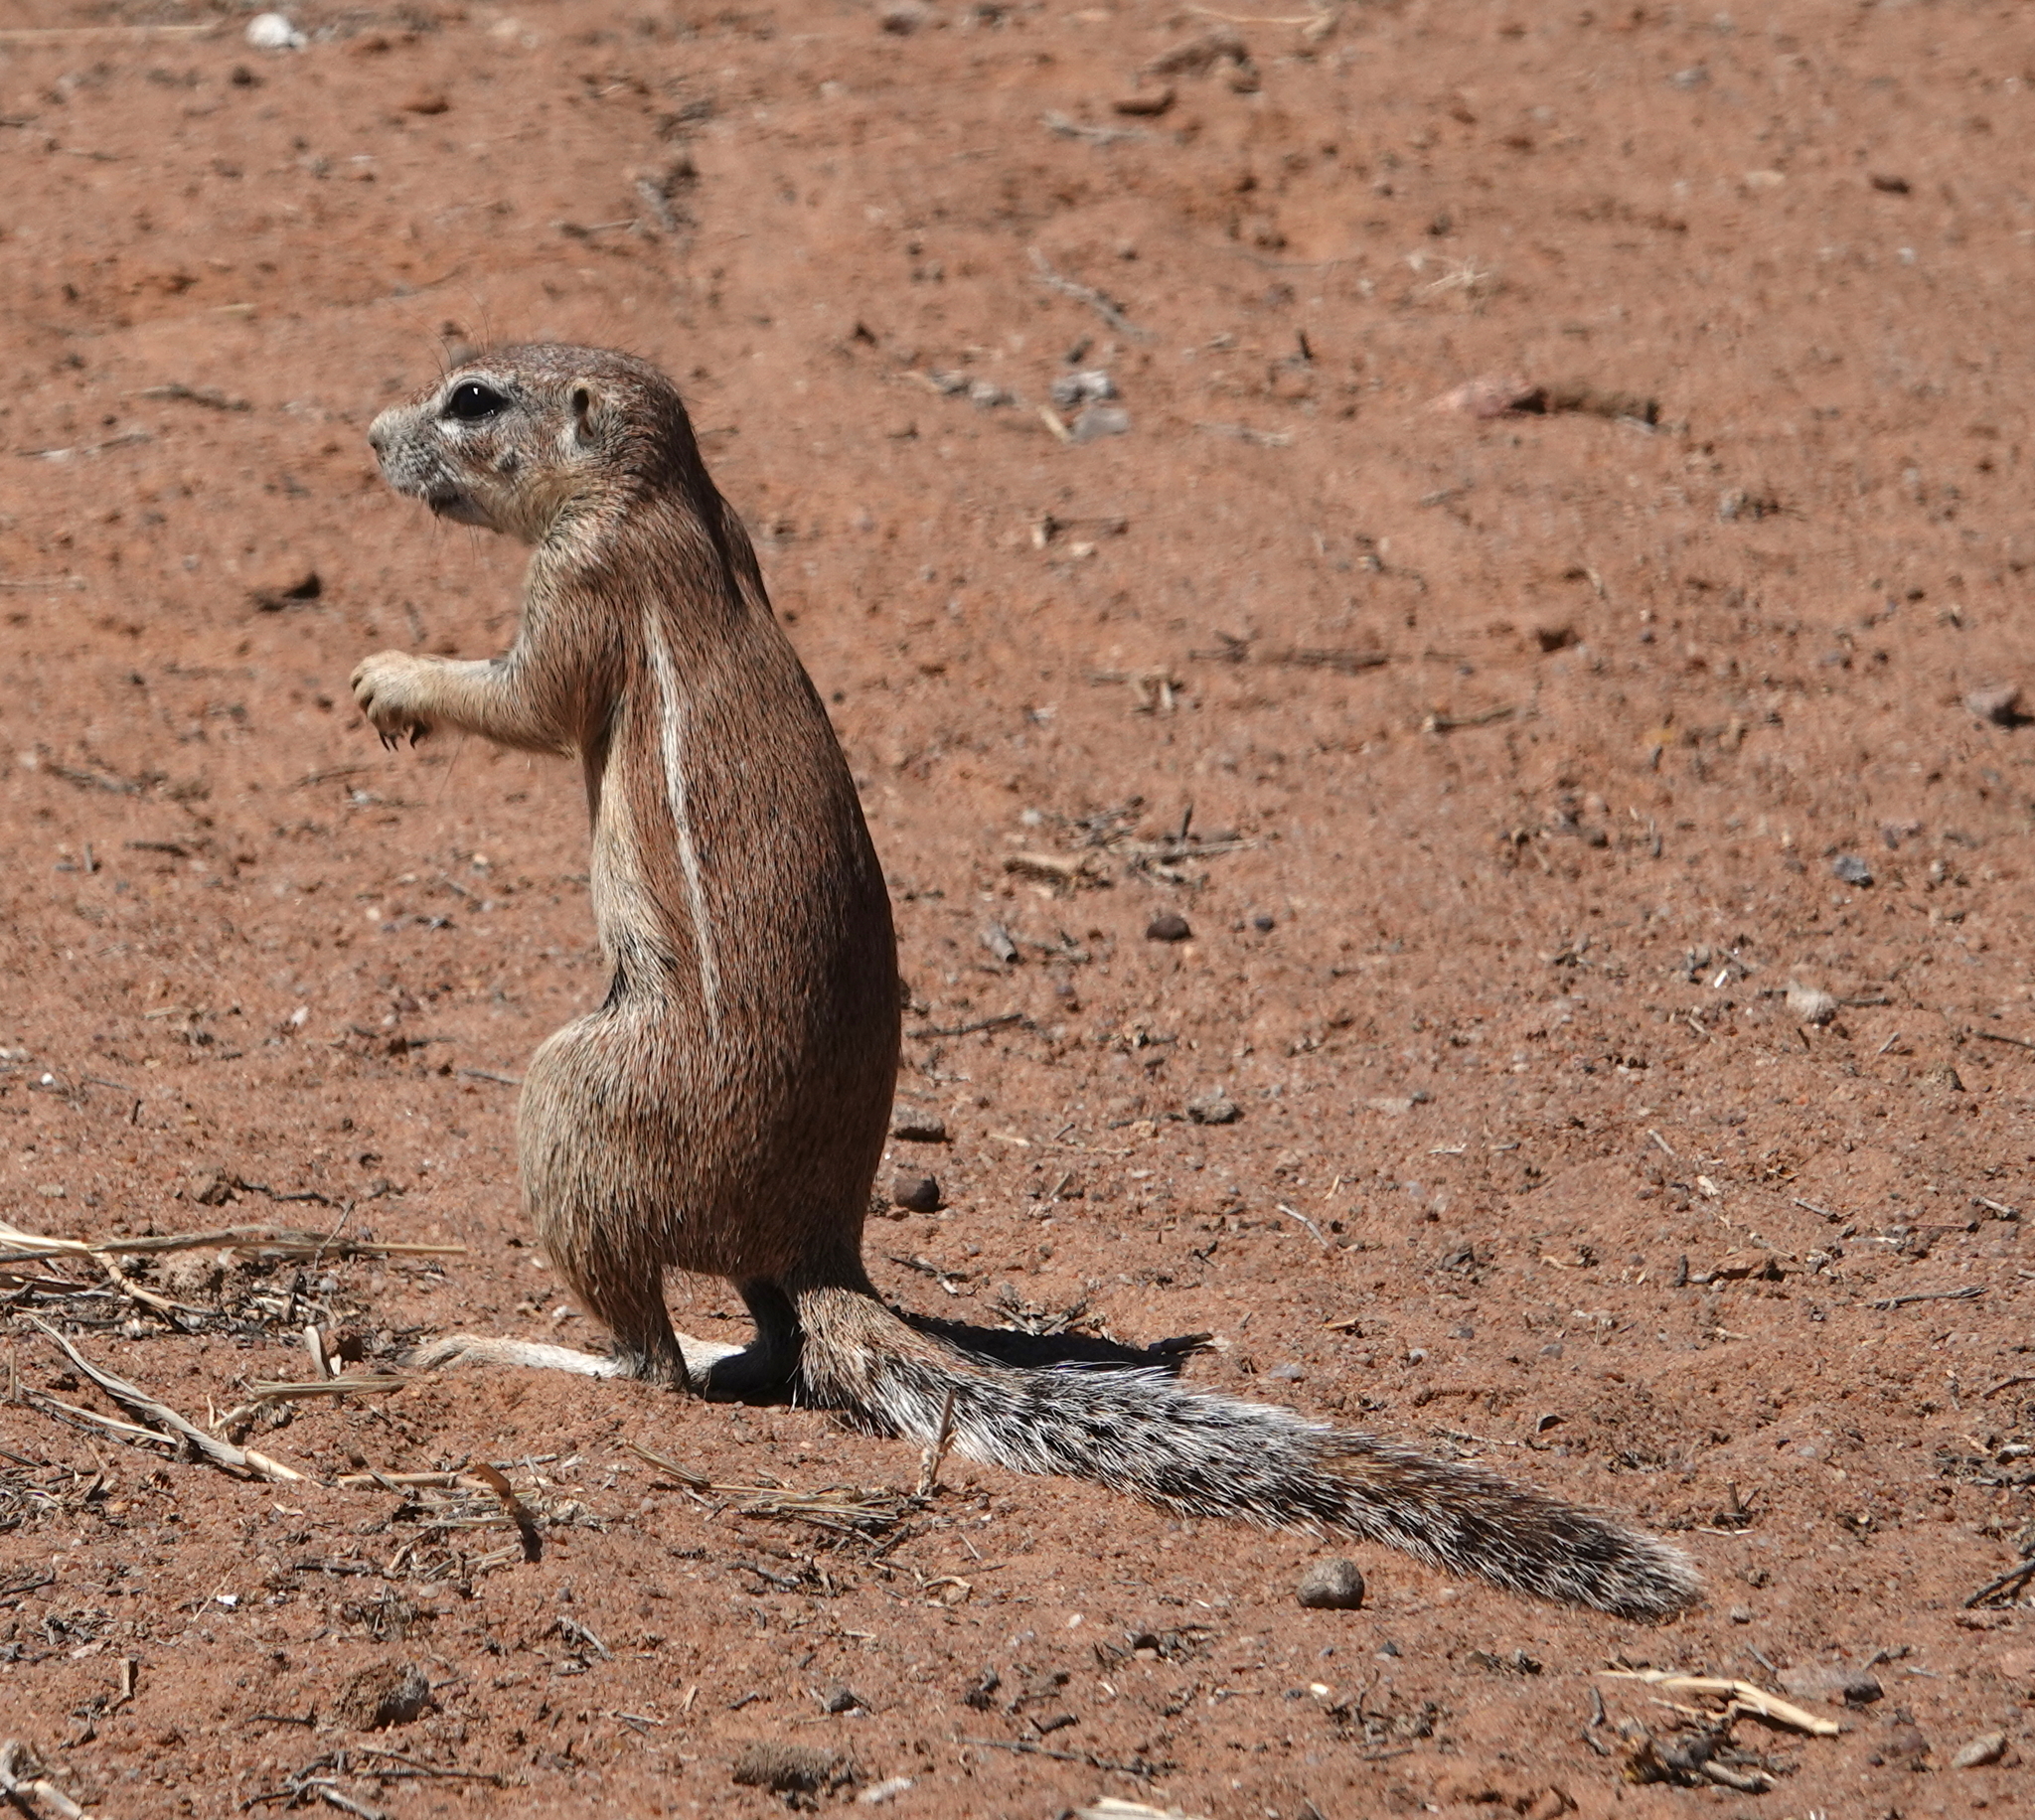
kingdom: Animalia
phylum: Chordata
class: Mammalia
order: Rodentia
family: Sciuridae
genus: Xerus
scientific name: Xerus inauris
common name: South african ground squirrel
